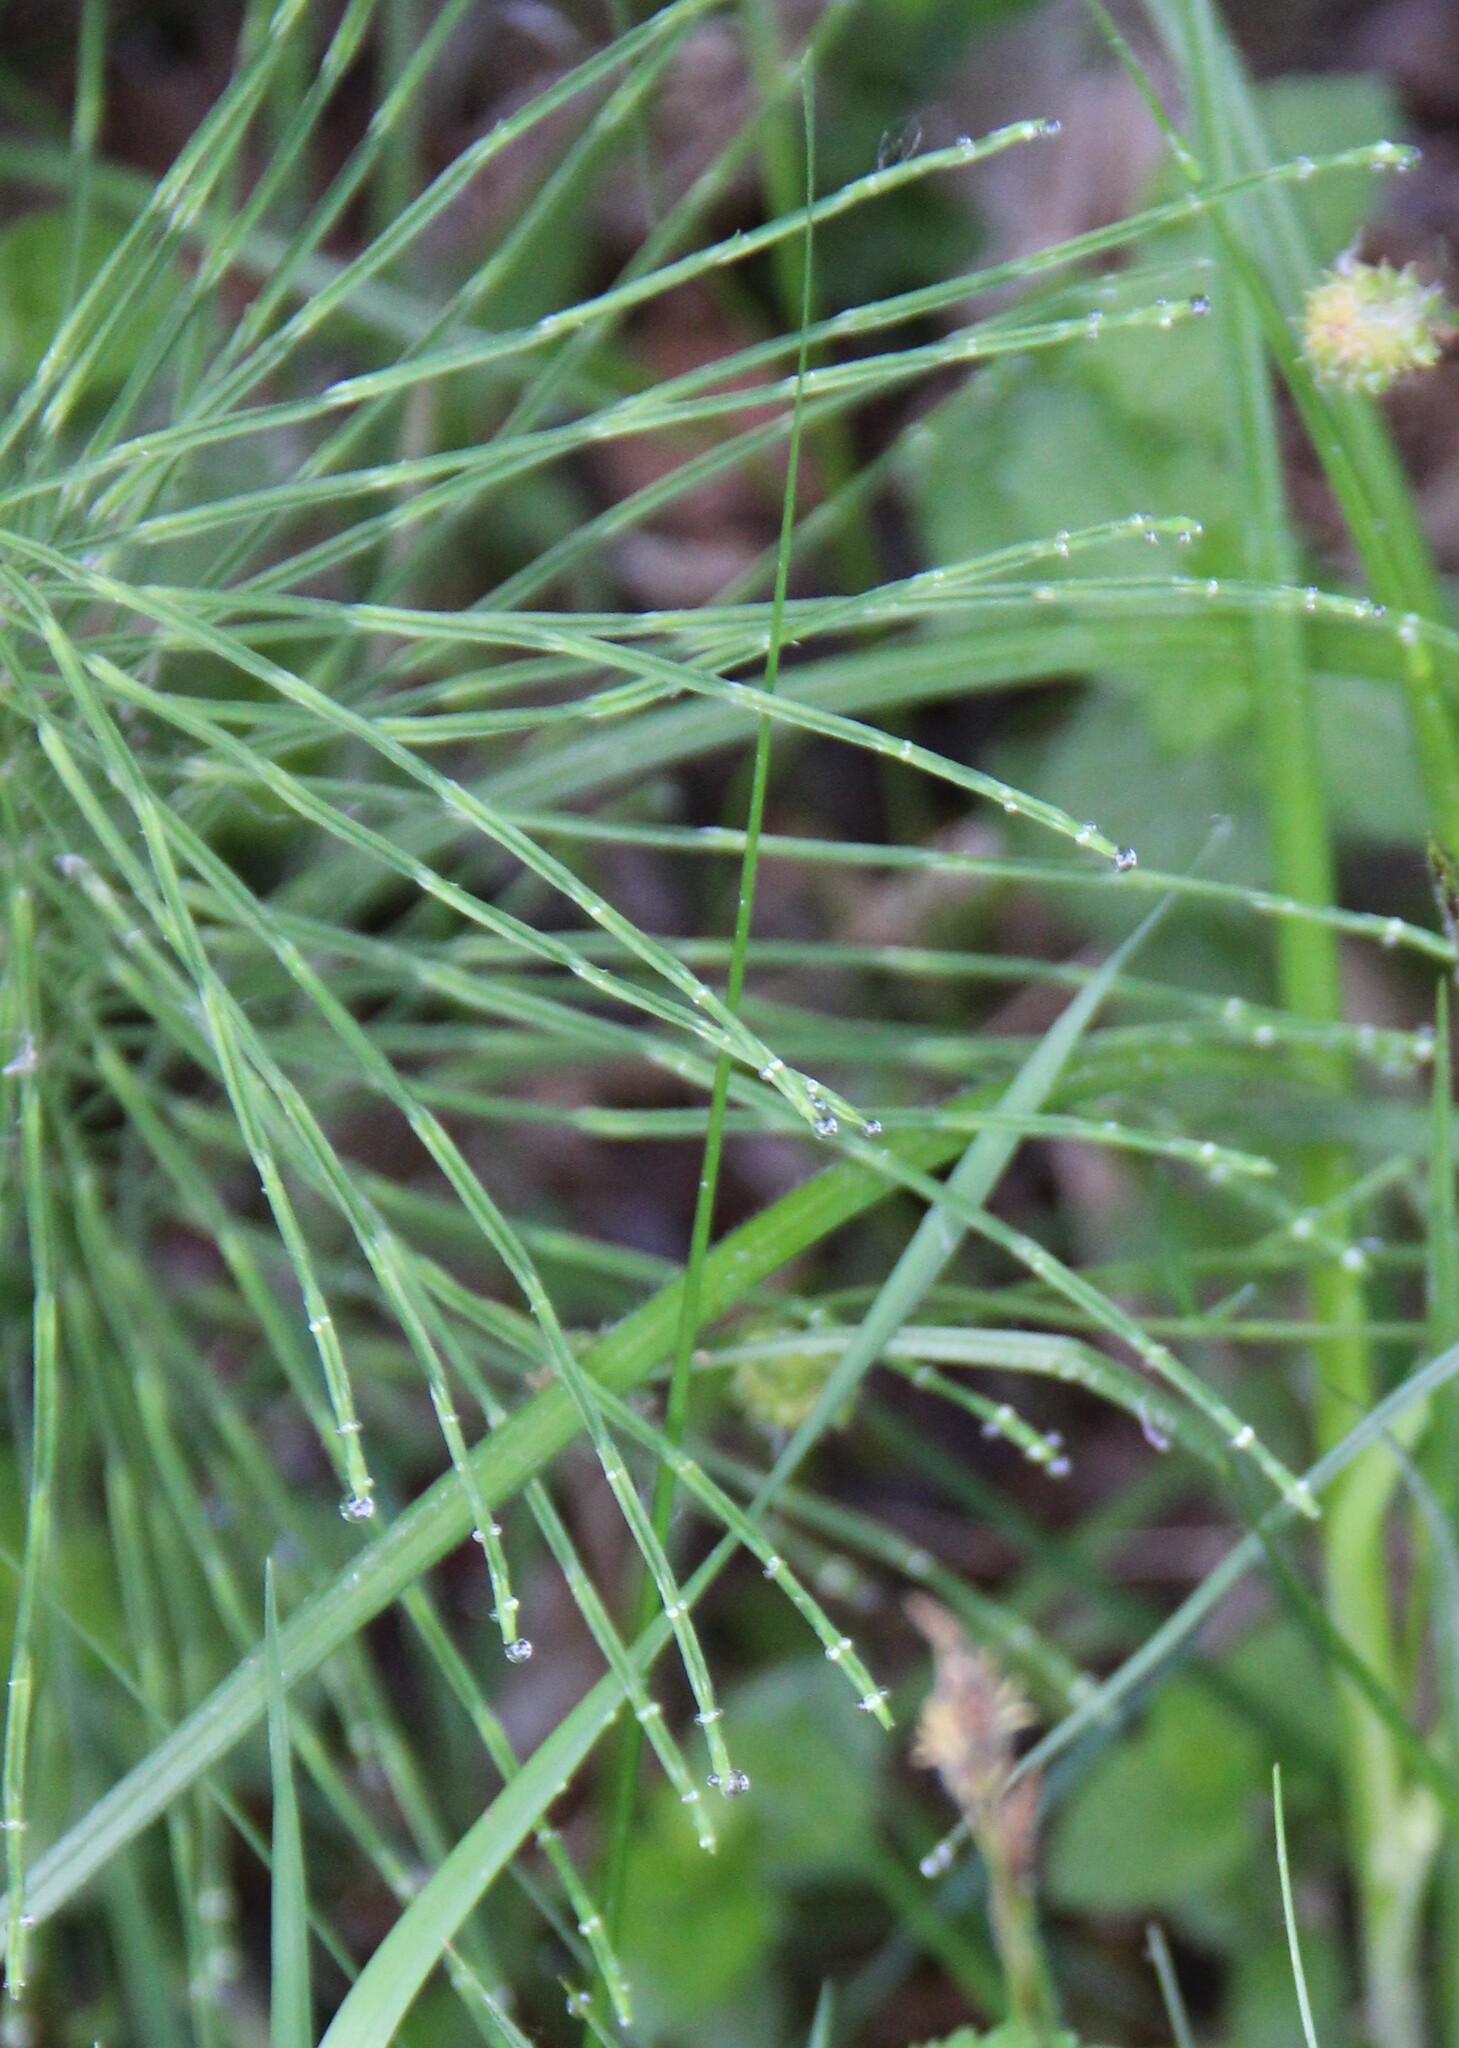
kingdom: Plantae
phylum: Tracheophyta
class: Polypodiopsida
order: Equisetales
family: Equisetaceae
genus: Equisetum
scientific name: Equisetum pratense
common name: Meadow horsetail
